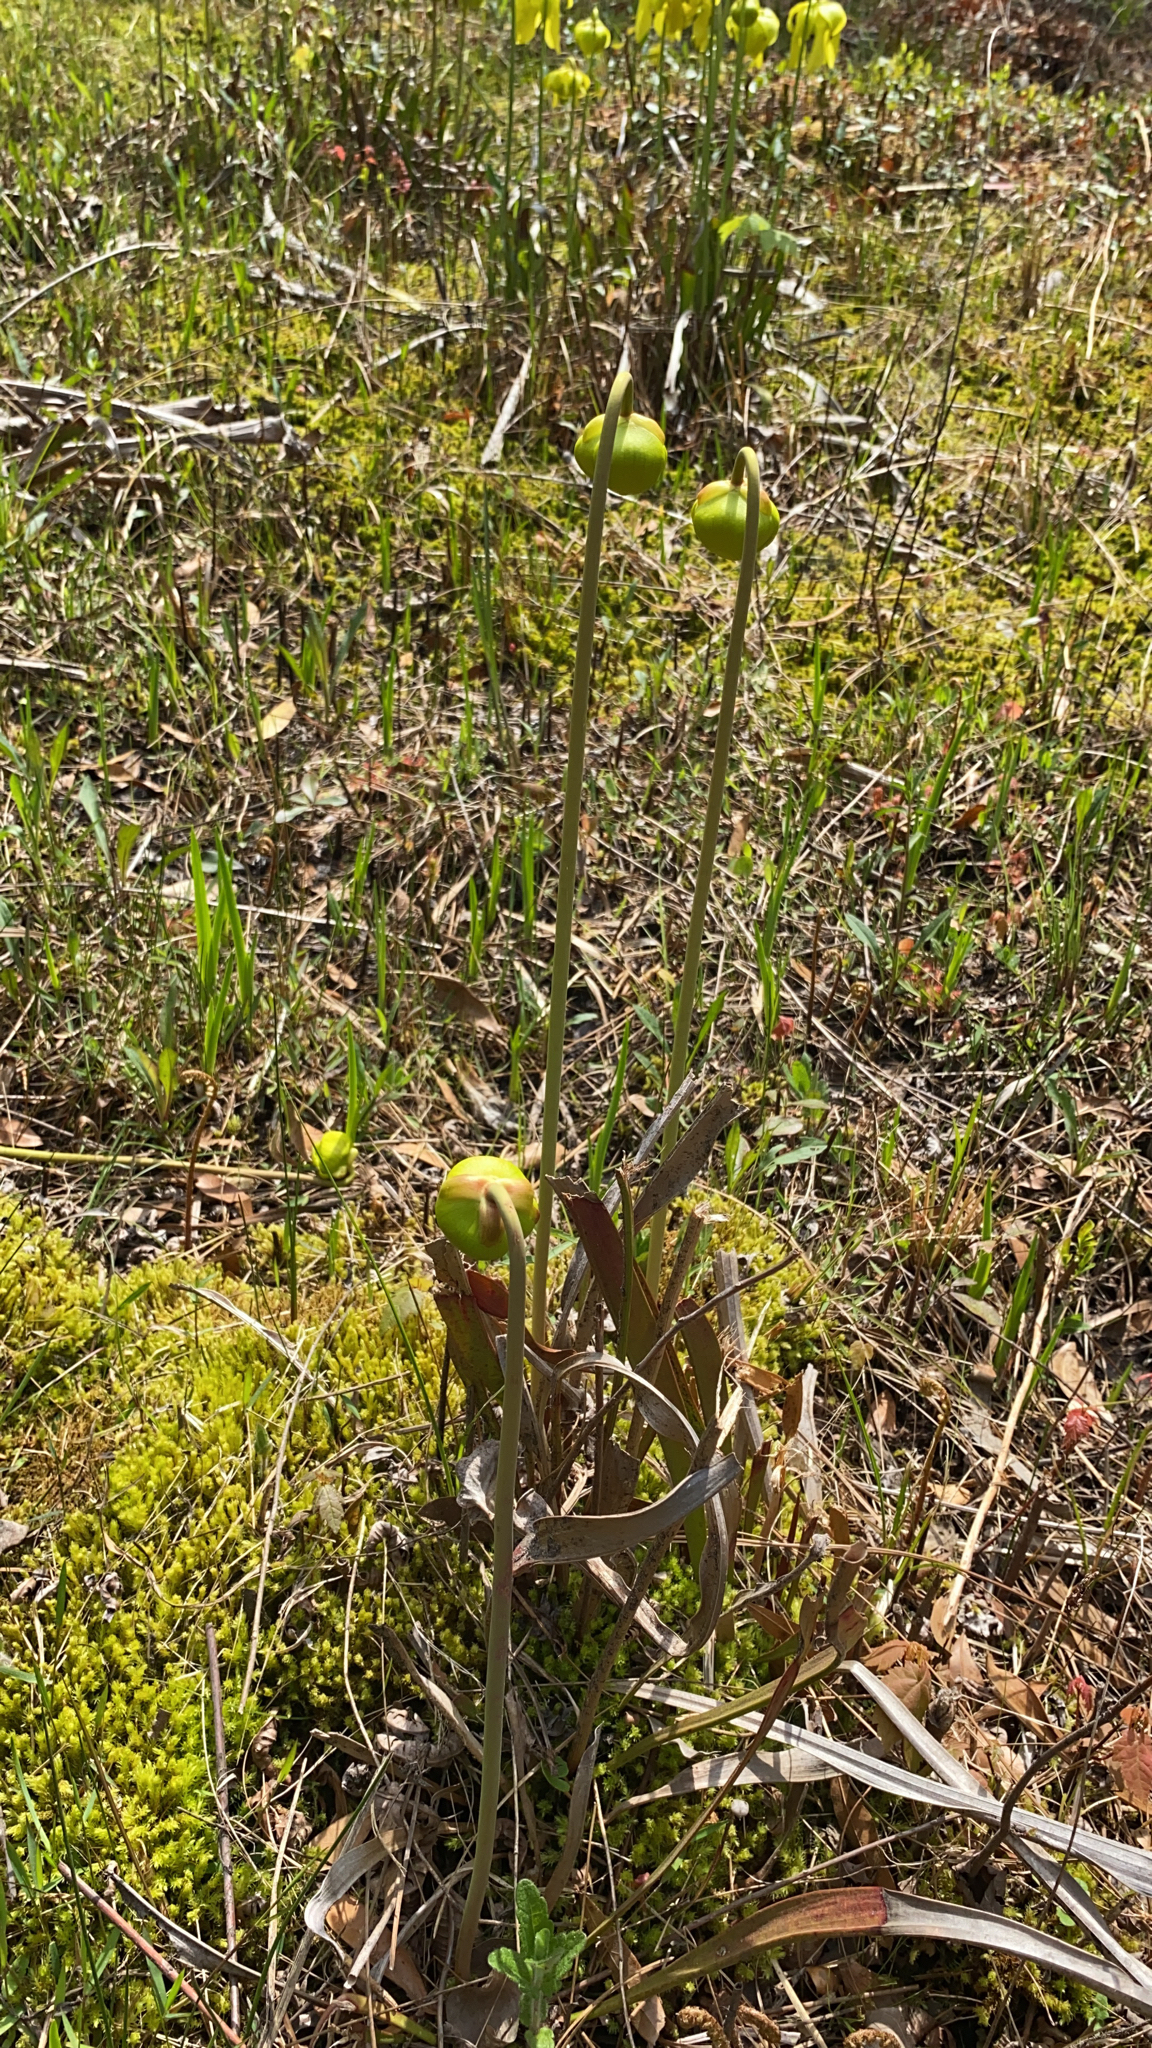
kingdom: Plantae
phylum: Tracheophyta
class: Magnoliopsida
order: Ericales
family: Sarraceniaceae
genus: Sarracenia
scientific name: Sarracenia flava
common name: Trumpets
